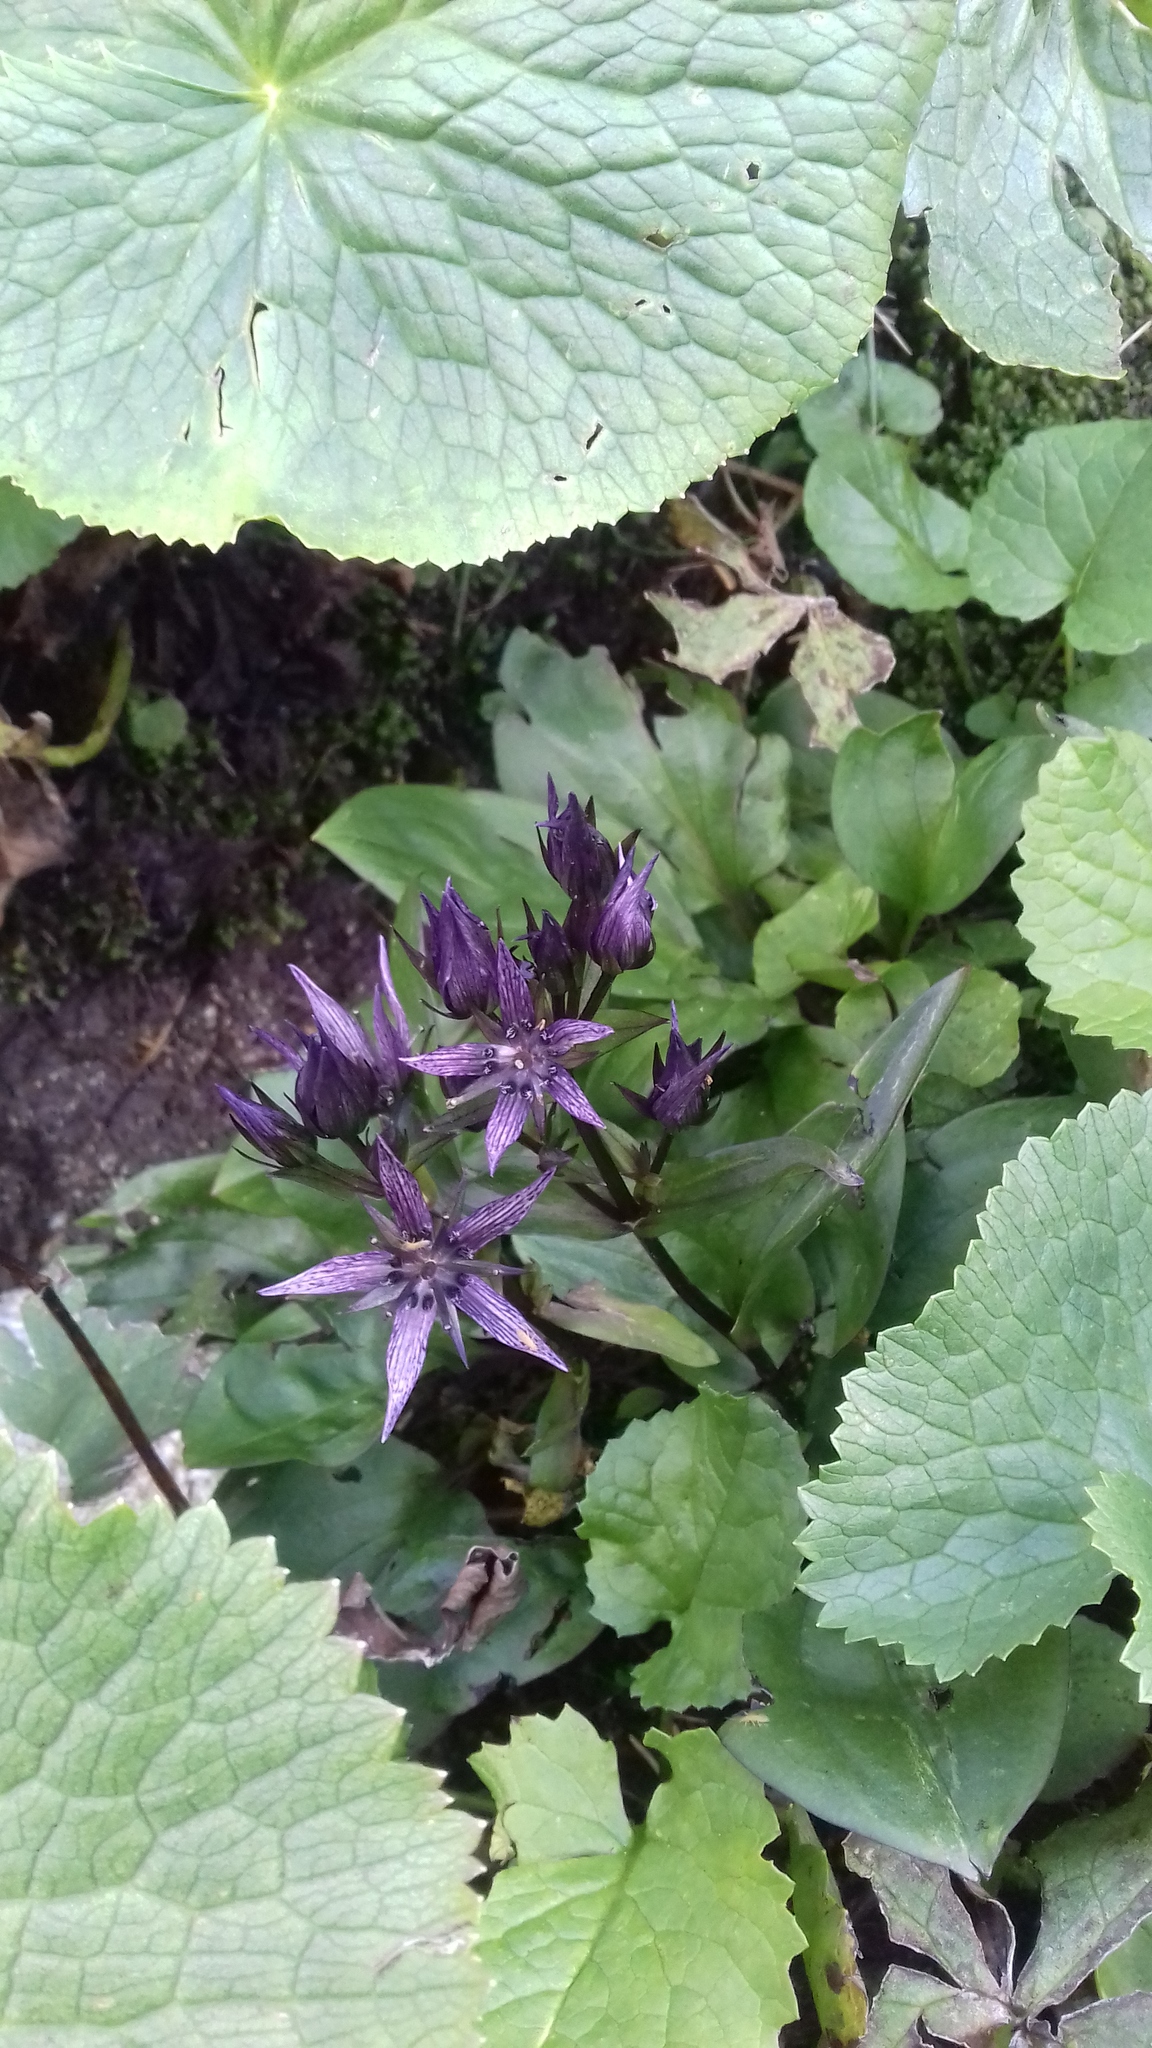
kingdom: Plantae
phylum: Tracheophyta
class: Magnoliopsida
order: Gentianales
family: Gentianaceae
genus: Swertia
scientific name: Swertia perennis
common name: Alpine bog swertia
